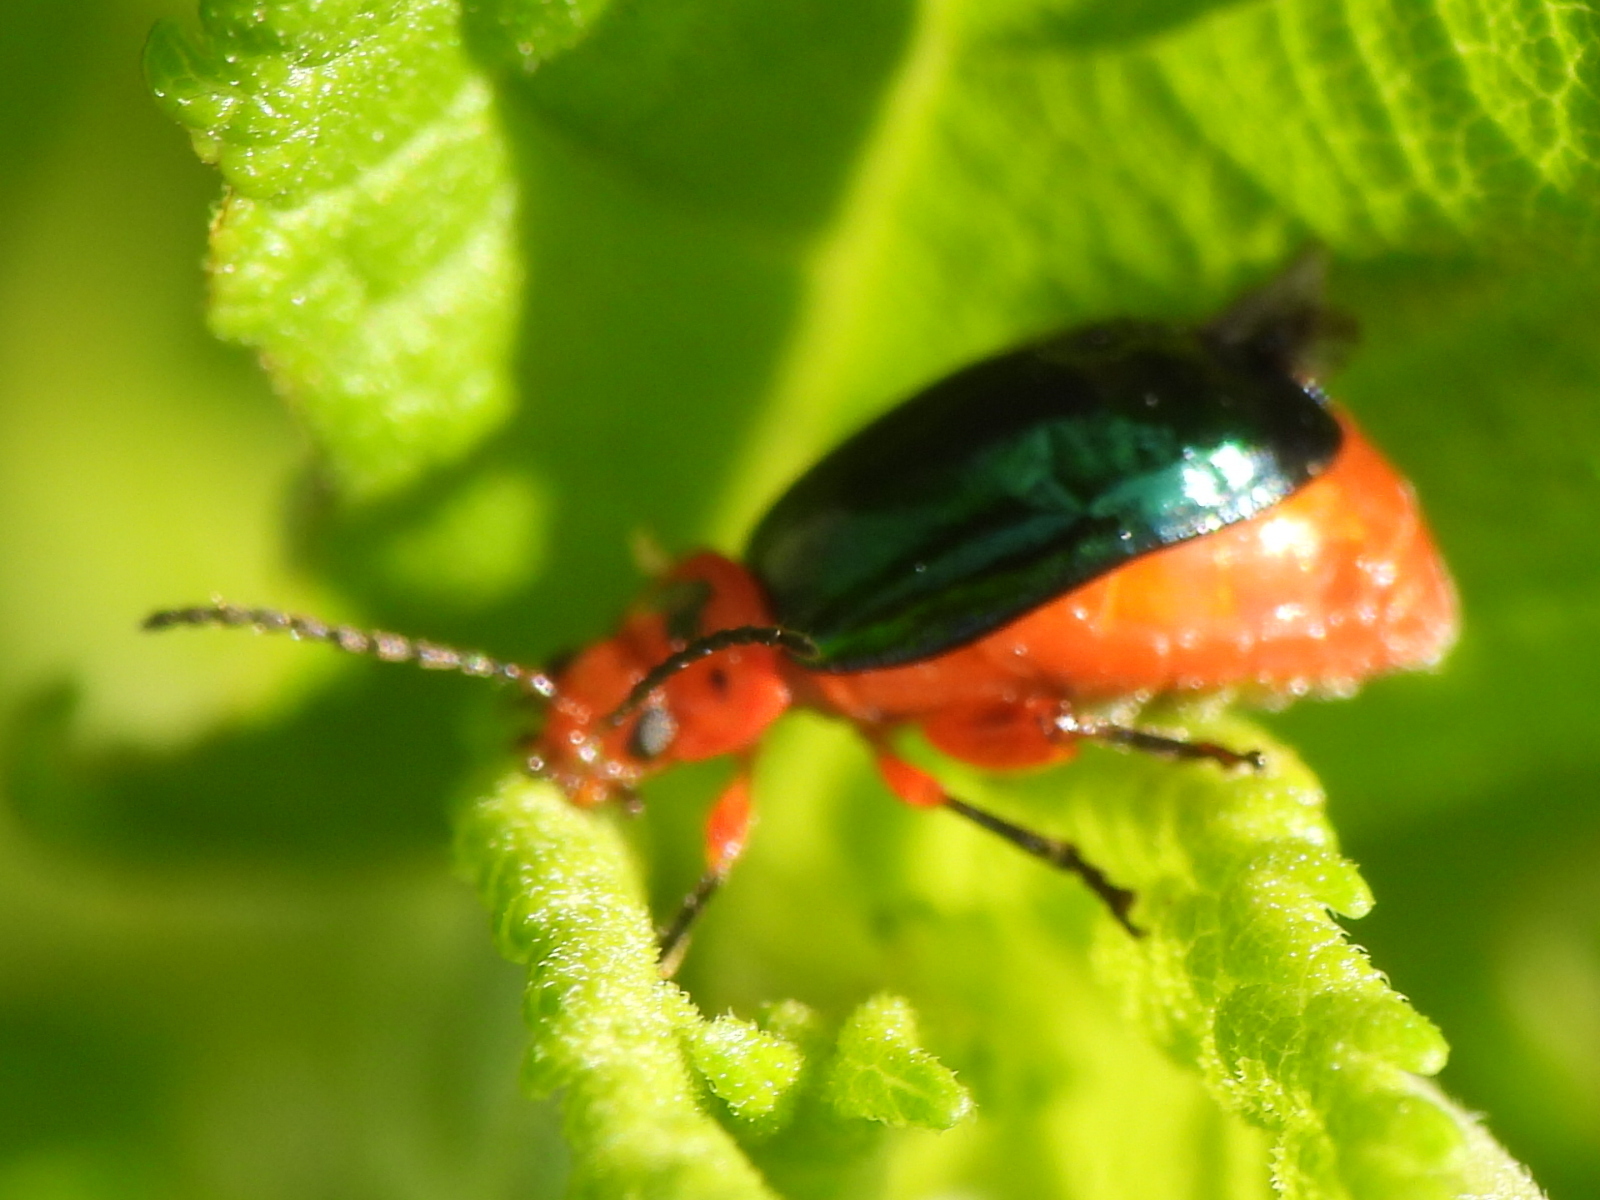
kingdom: Animalia
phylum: Arthropoda
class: Insecta
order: Coleoptera
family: Chrysomelidae
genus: Kuschelina
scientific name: Kuschelina gibbitarsa
